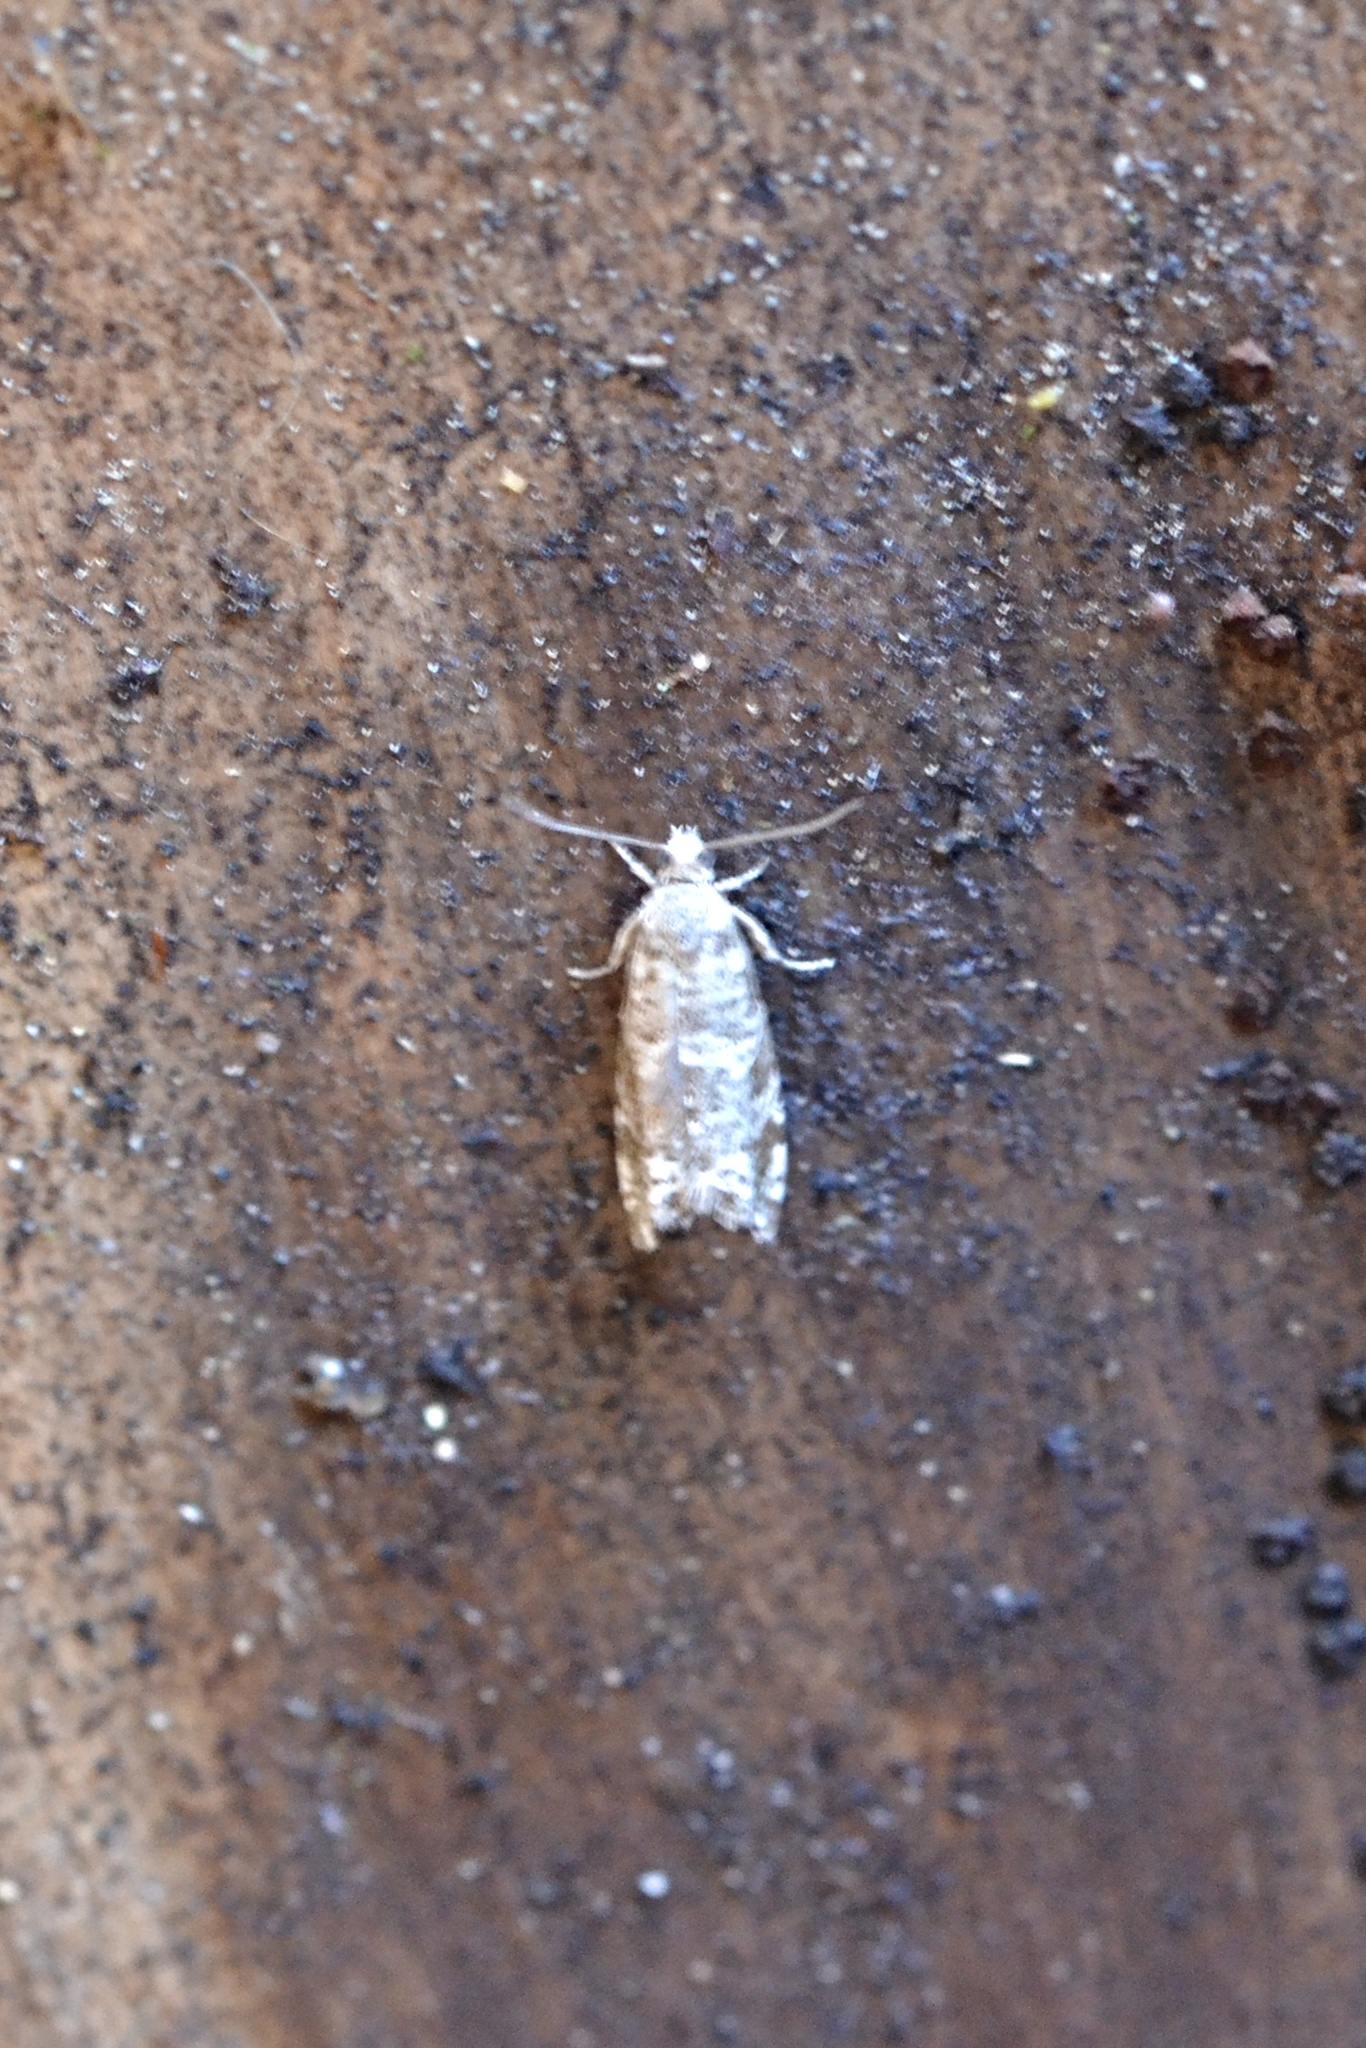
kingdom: Animalia
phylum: Arthropoda
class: Insecta
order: Lepidoptera
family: Tortricidae
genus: Epinotia
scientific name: Epinotia tedella
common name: Common spruce bell
